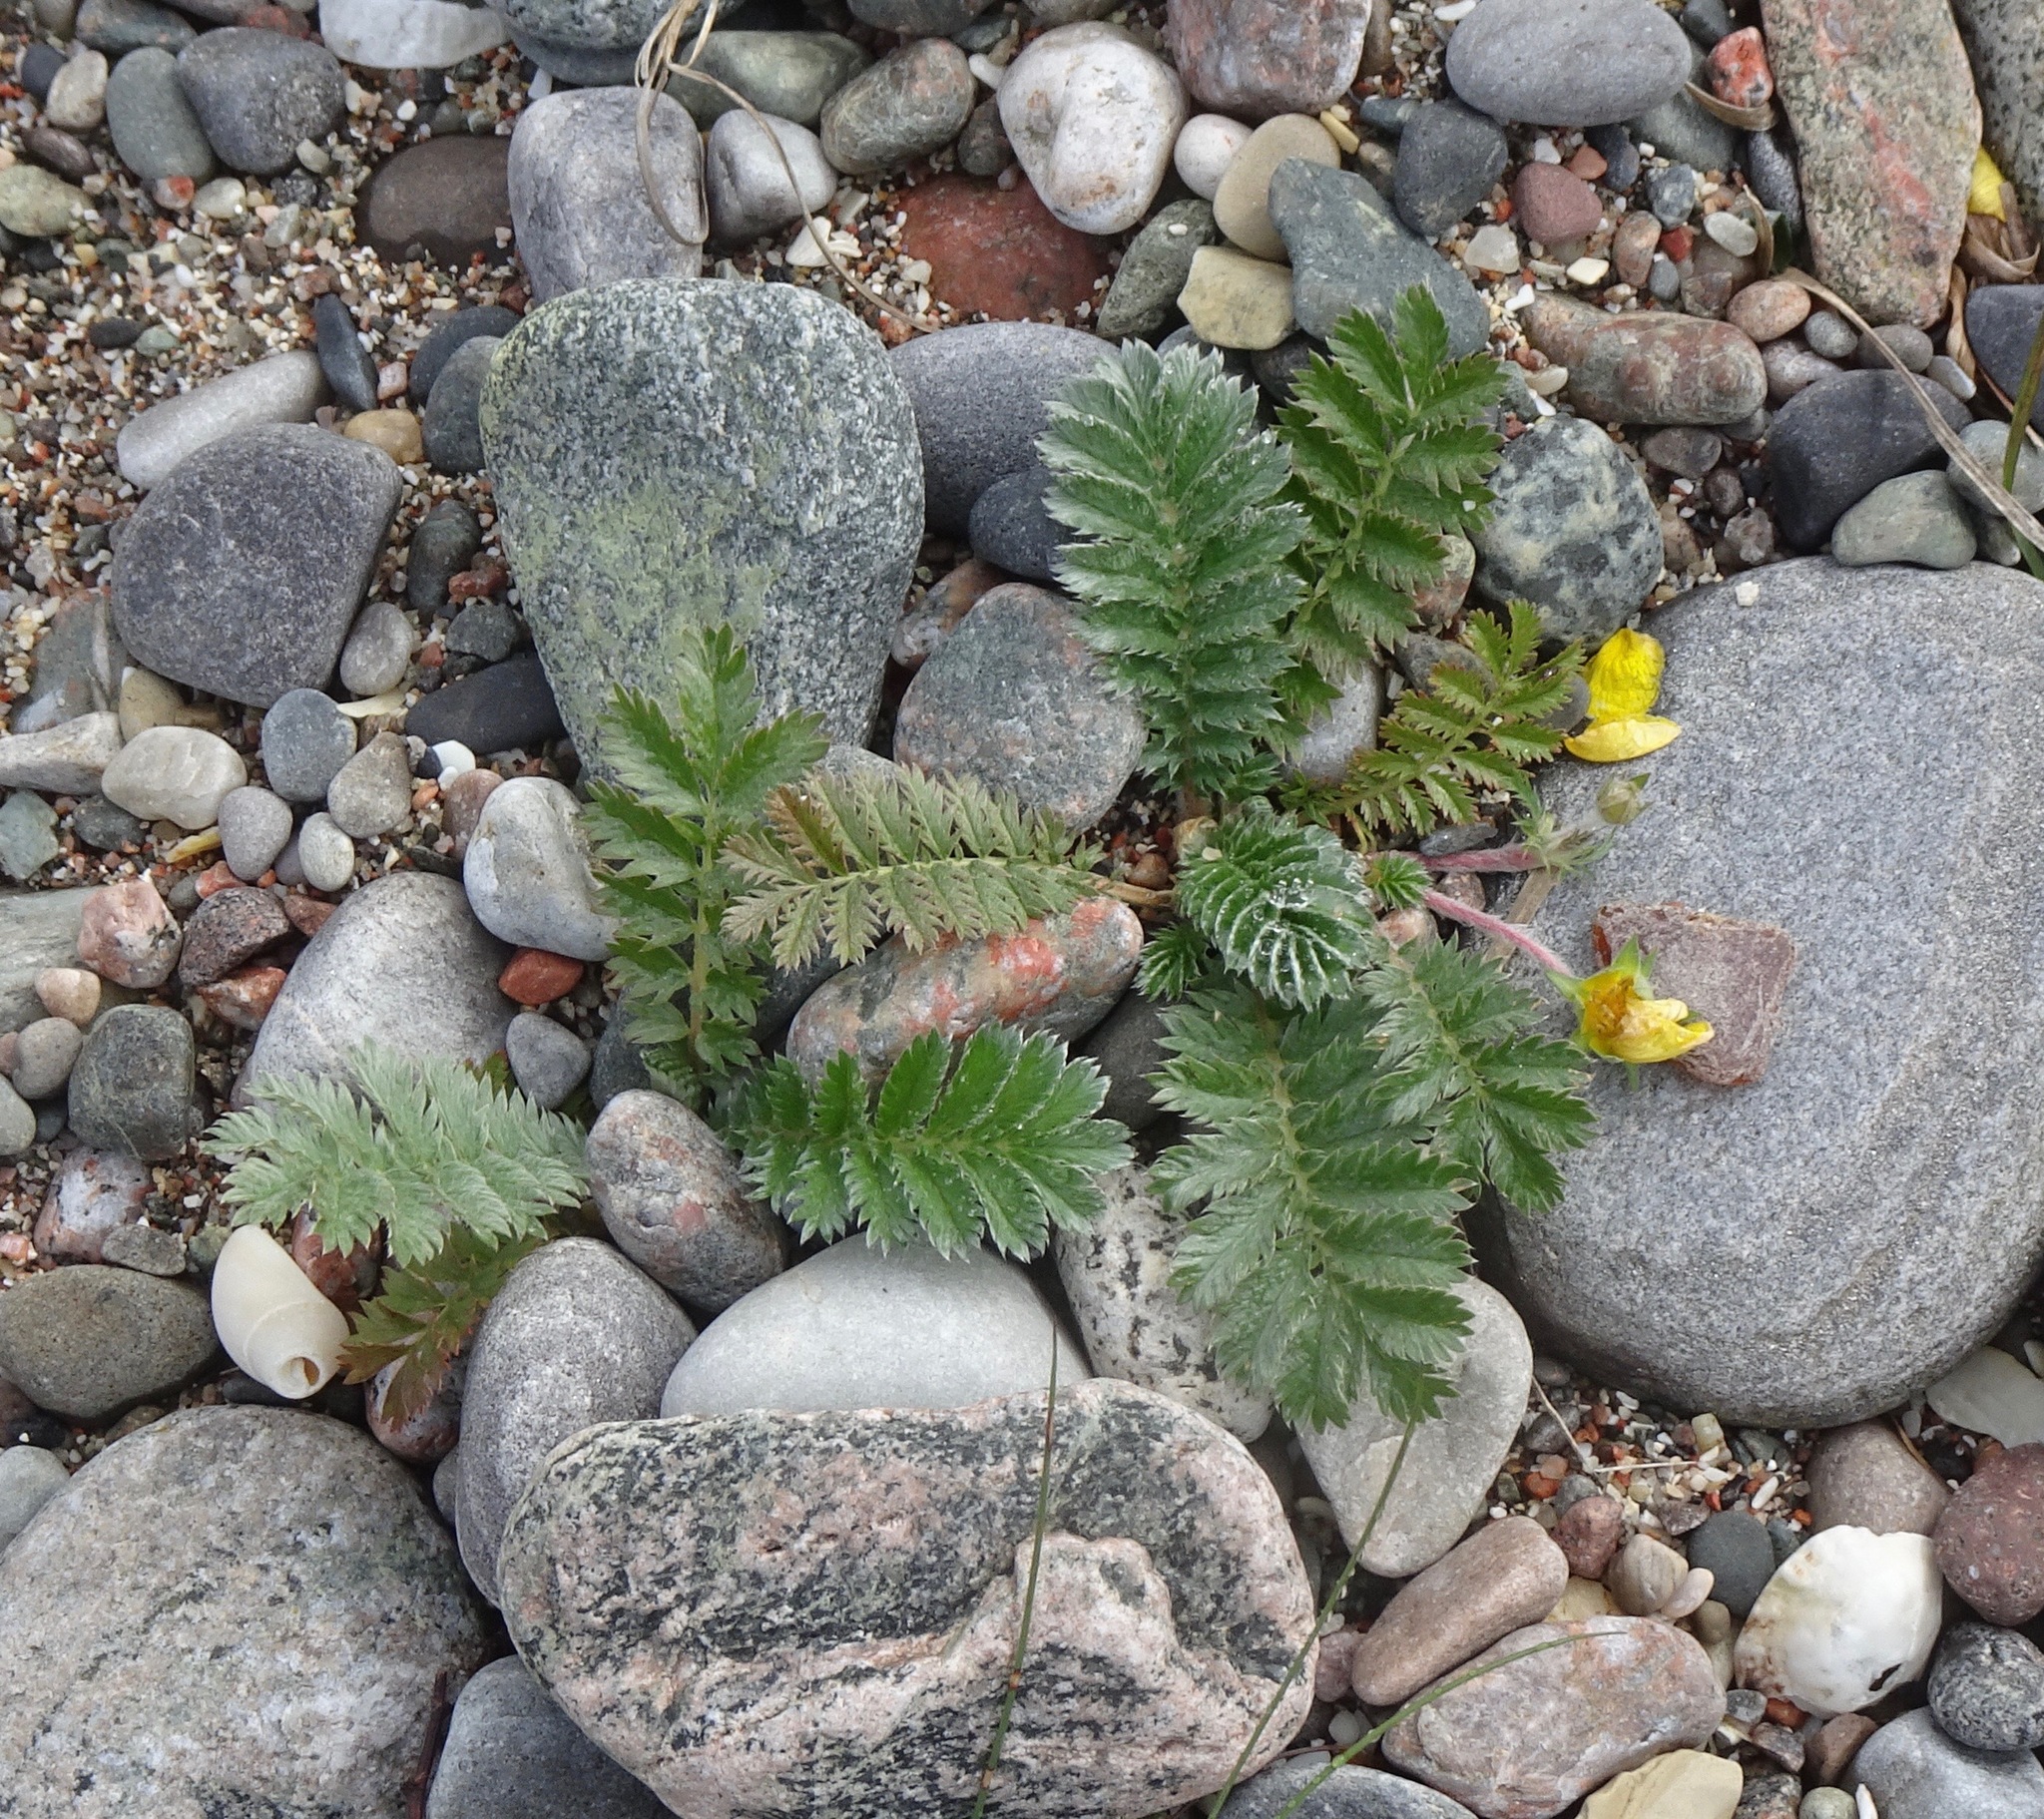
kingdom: Plantae
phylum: Tracheophyta
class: Magnoliopsida
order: Rosales
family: Rosaceae
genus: Argentina
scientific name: Argentina anserina
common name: Common silverweed
